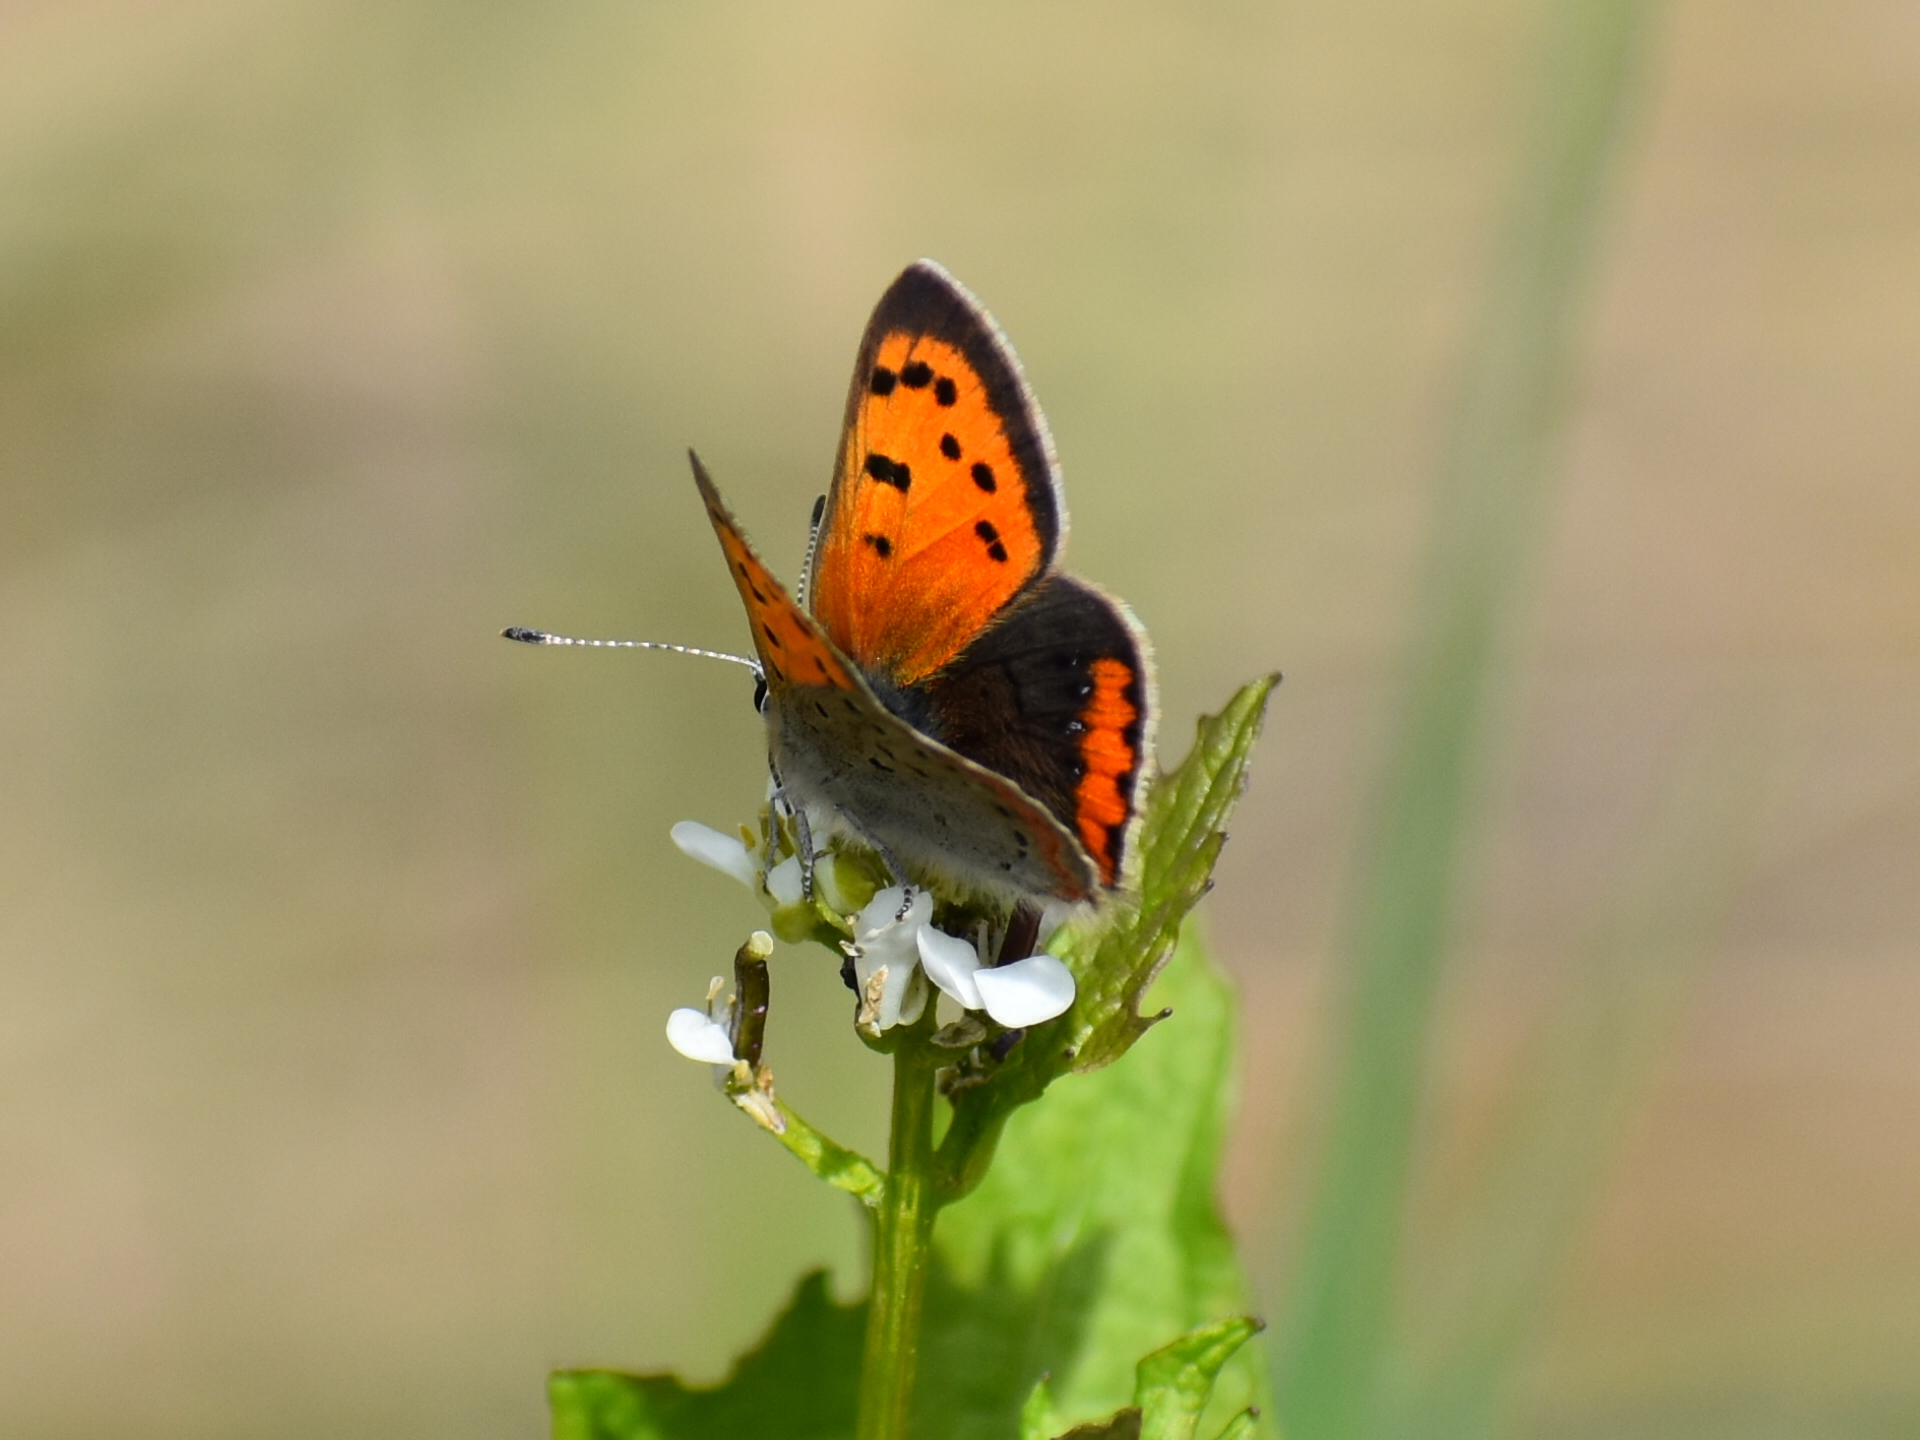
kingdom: Animalia
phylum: Arthropoda
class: Insecta
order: Lepidoptera
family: Lycaenidae
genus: Lycaena
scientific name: Lycaena hypophlaeas
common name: American copper
